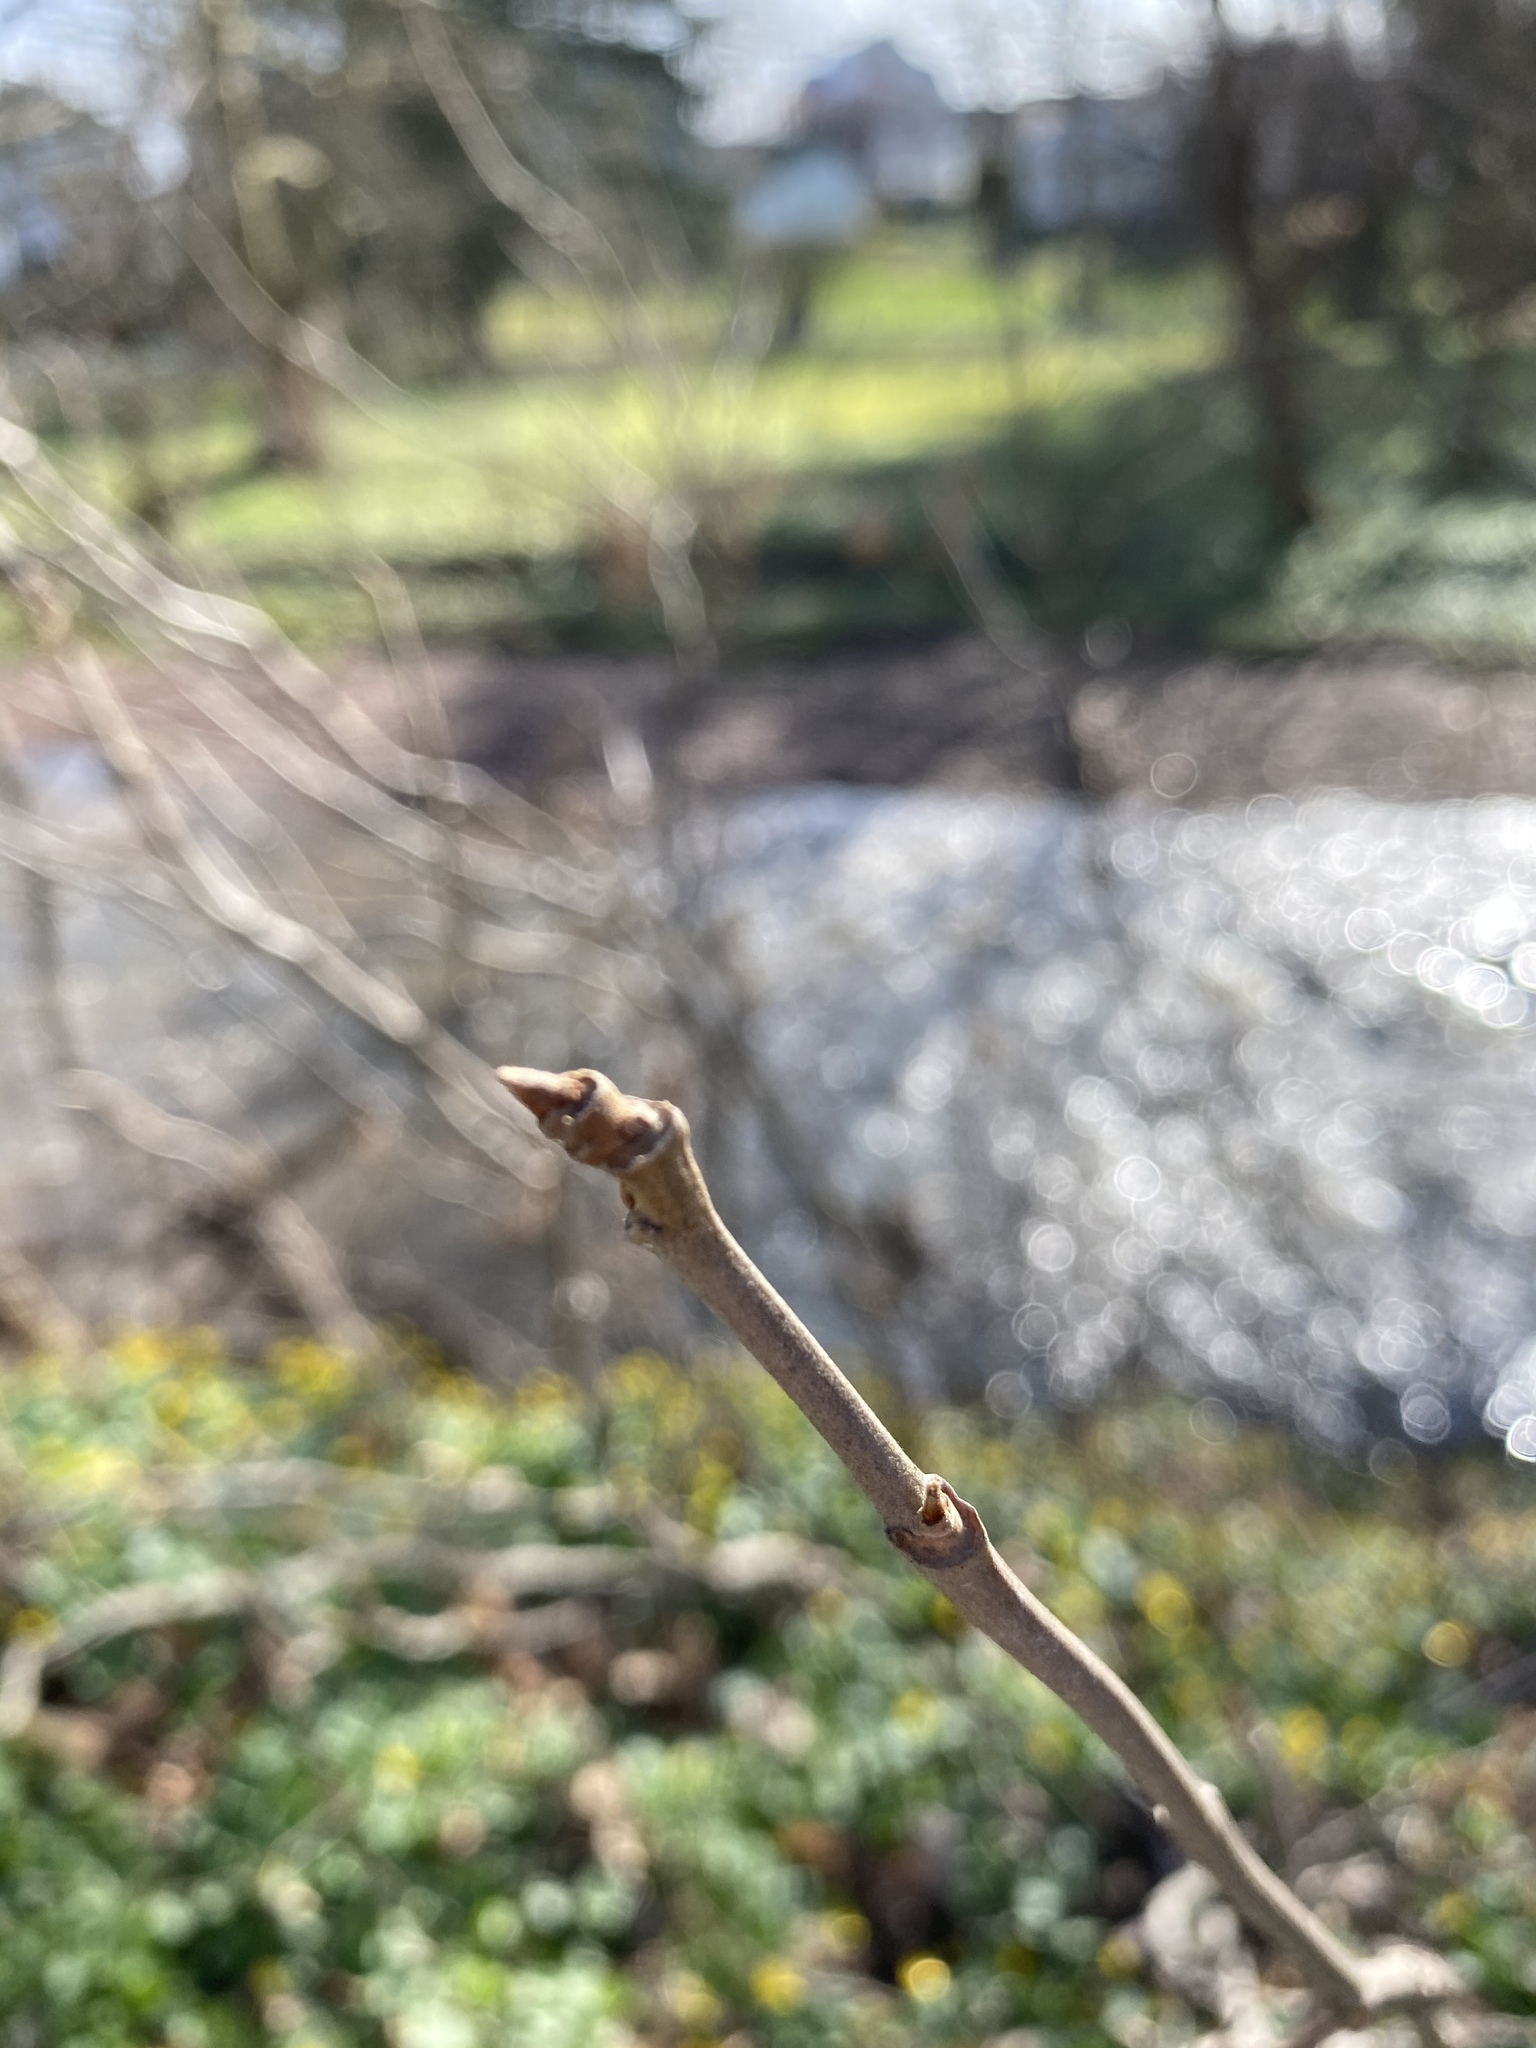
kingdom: Plantae
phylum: Tracheophyta
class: Magnoliopsida
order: Sapindales
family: Anacardiaceae
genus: Toxicodendron
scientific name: Toxicodendron radicans
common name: Poison ivy
